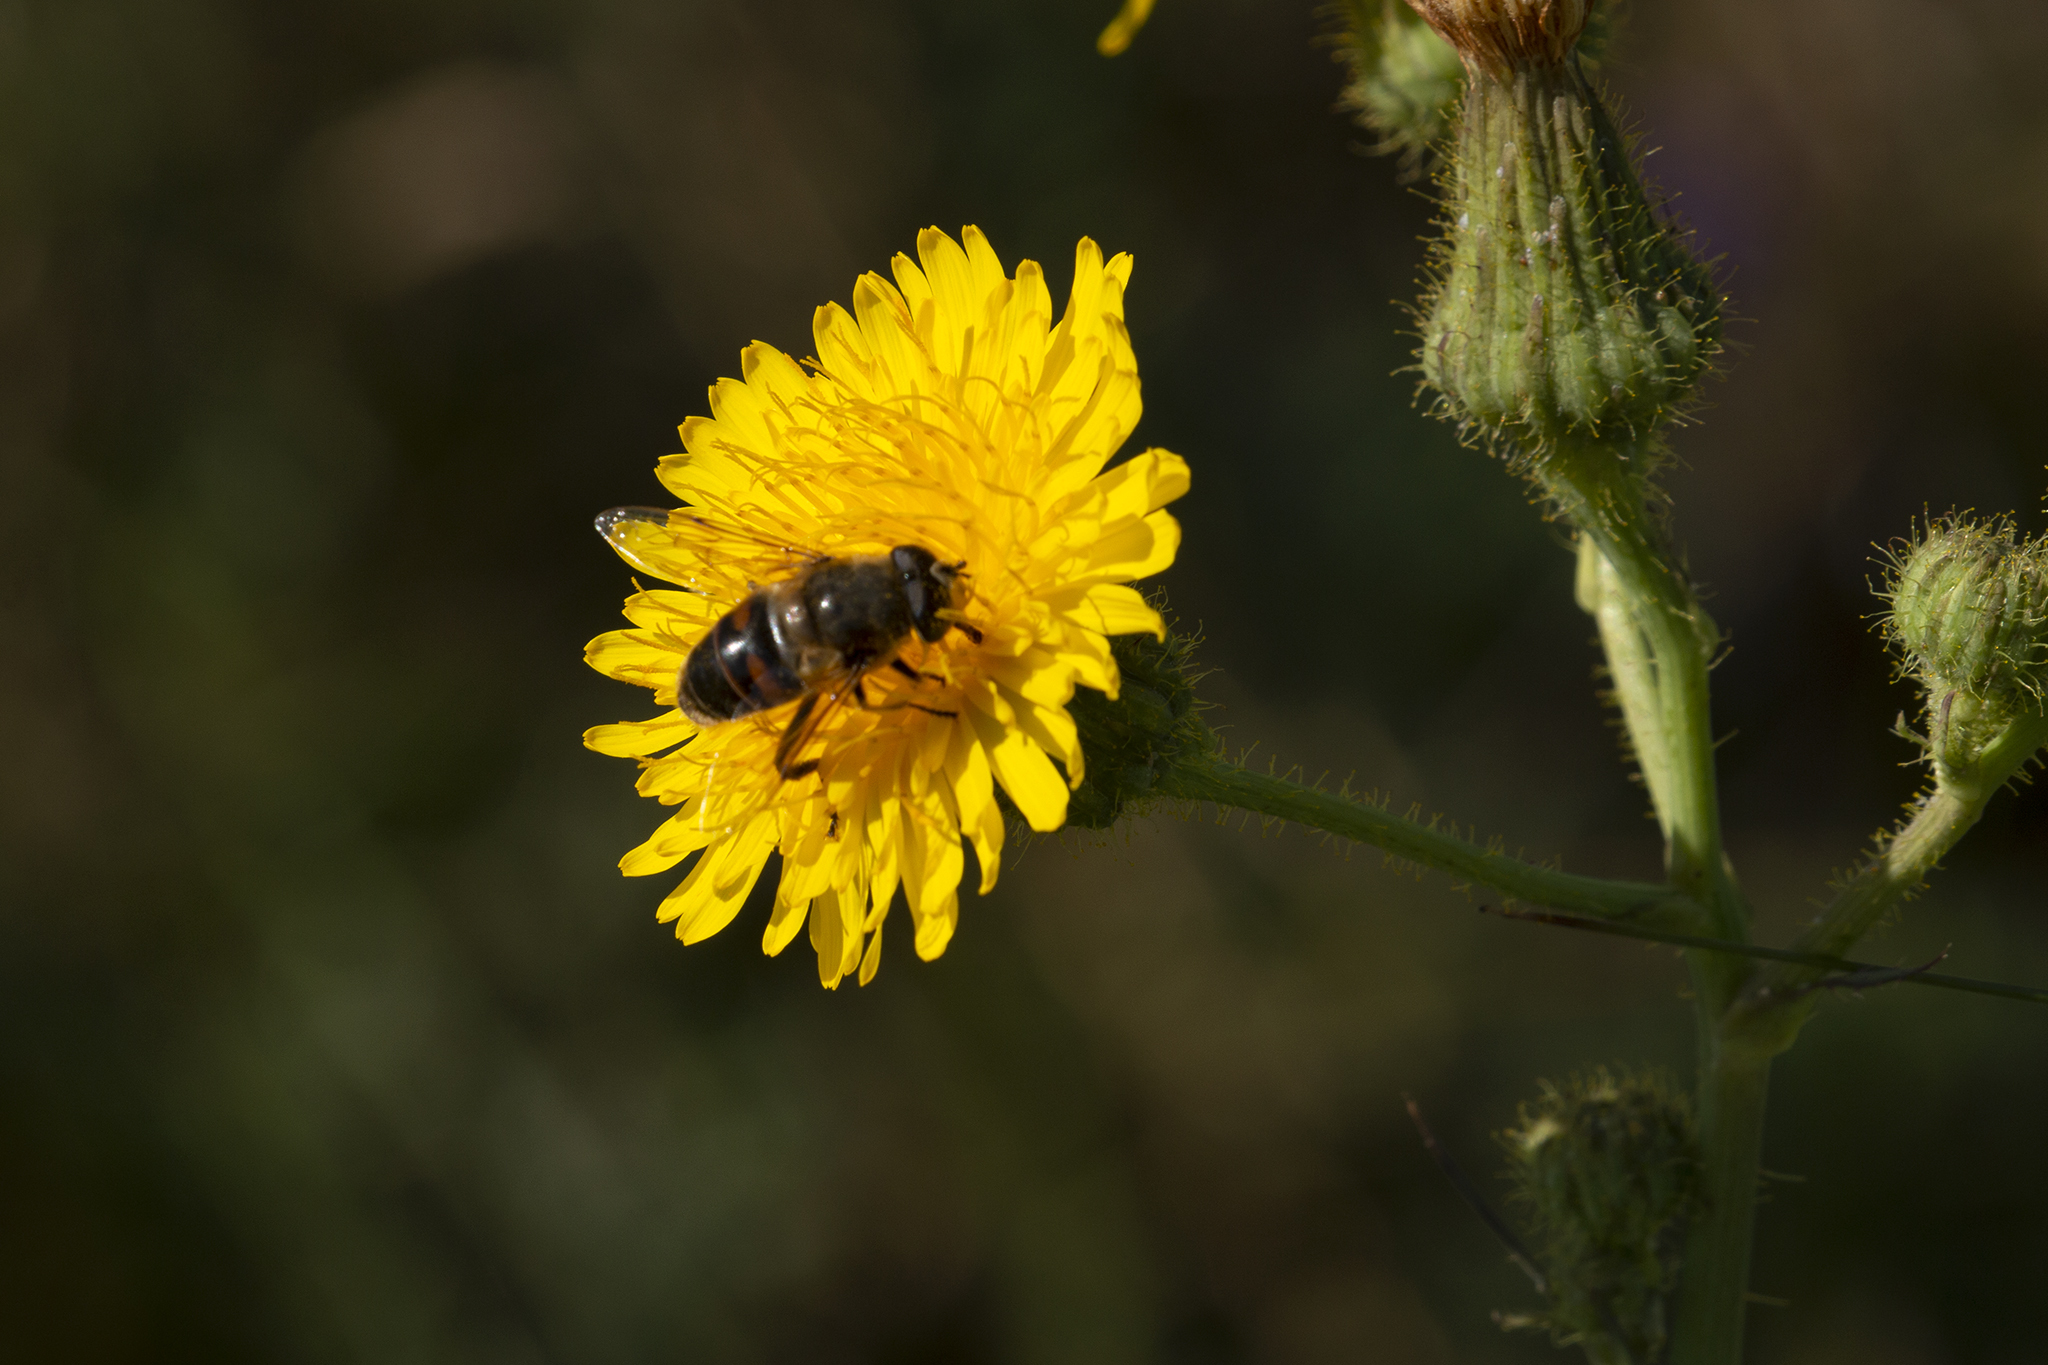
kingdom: Animalia
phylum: Arthropoda
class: Insecta
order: Diptera
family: Syrphidae
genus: Eristalis
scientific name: Eristalis tenax
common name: Drone fly
